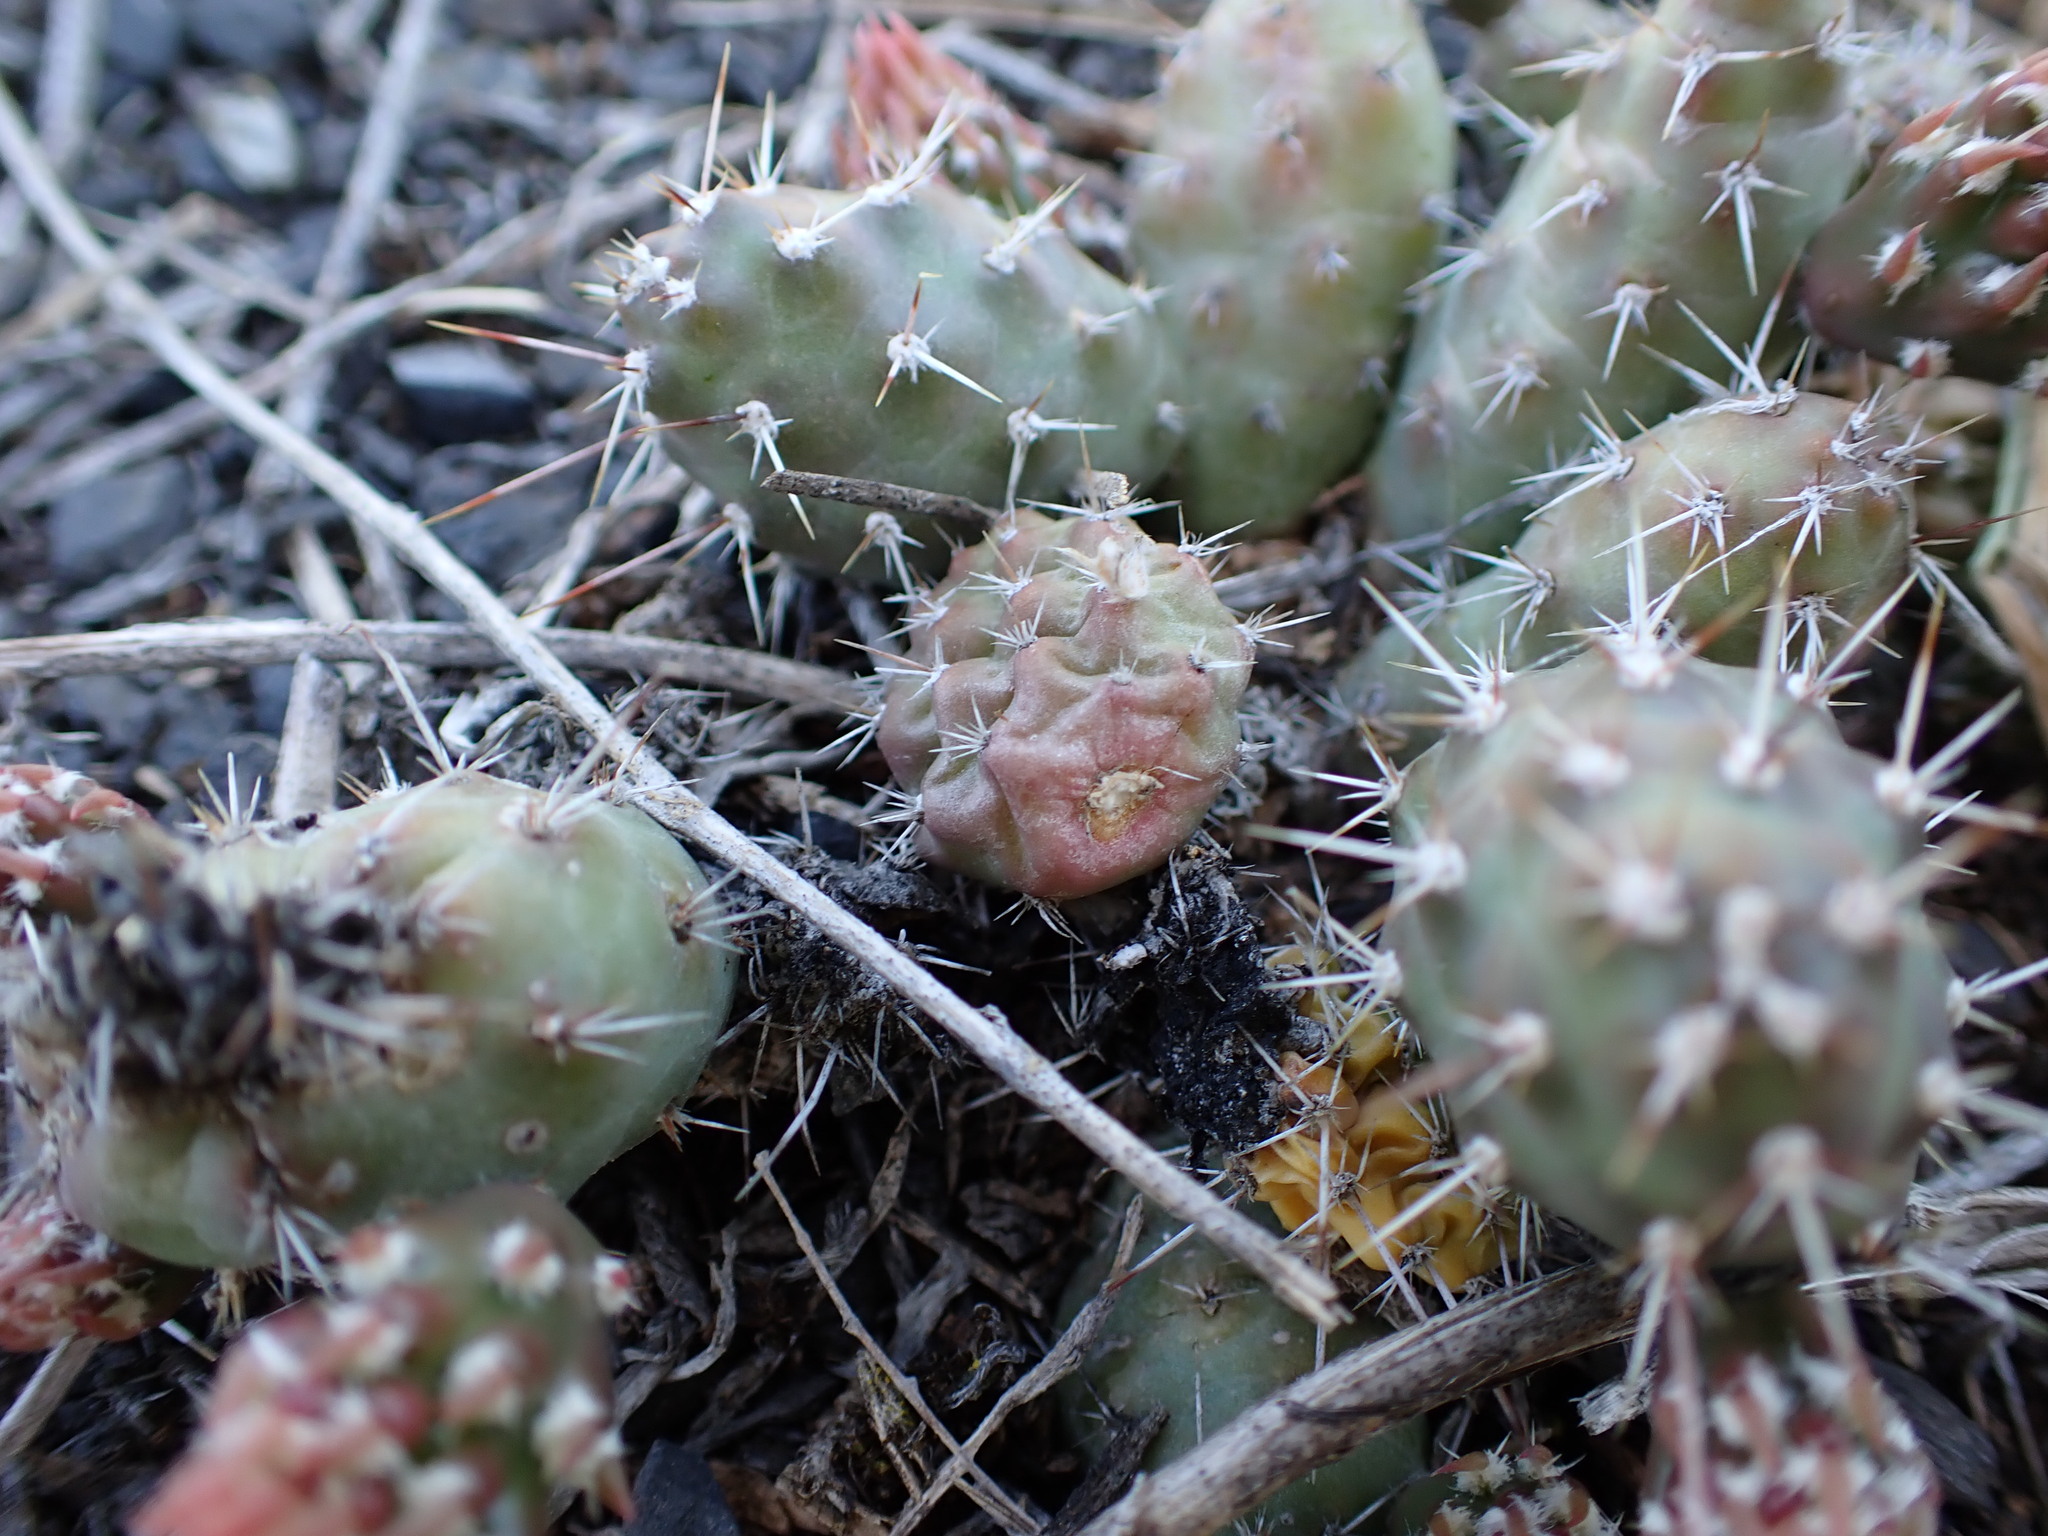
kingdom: Plantae
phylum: Tracheophyta
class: Magnoliopsida
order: Caryophyllales
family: Cactaceae
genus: Opuntia
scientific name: Opuntia fragilis
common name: Brittle cactus
